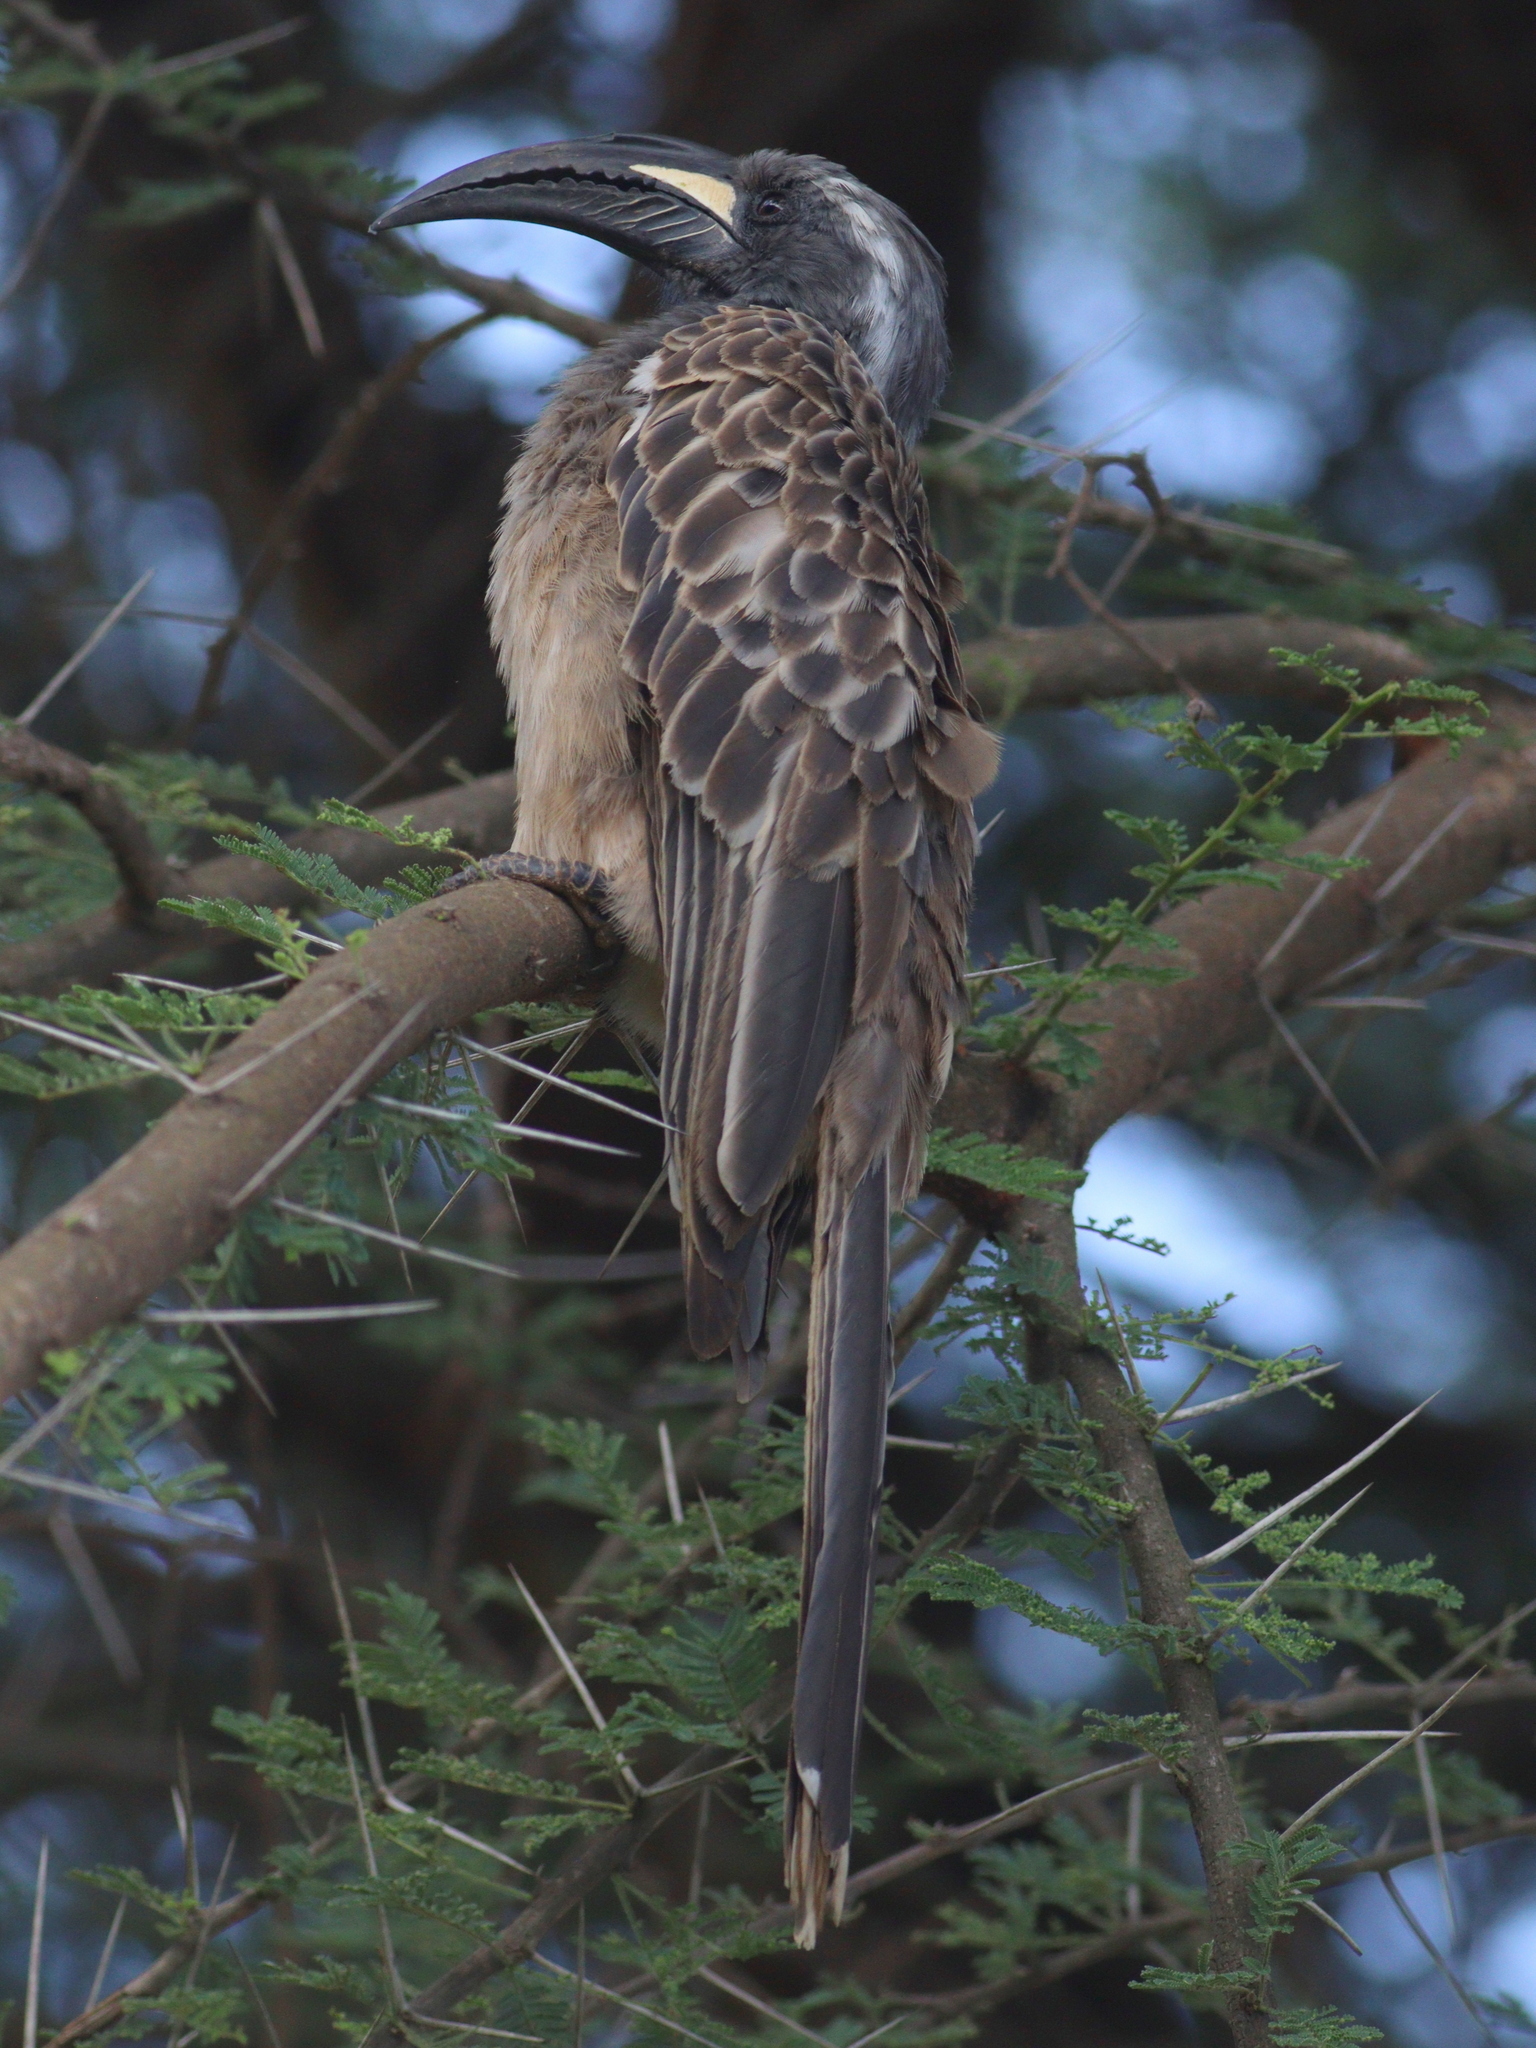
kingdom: Animalia
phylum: Chordata
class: Aves
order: Bucerotiformes
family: Bucerotidae
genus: Lophoceros
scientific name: Lophoceros nasutus
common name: African grey hornbill
